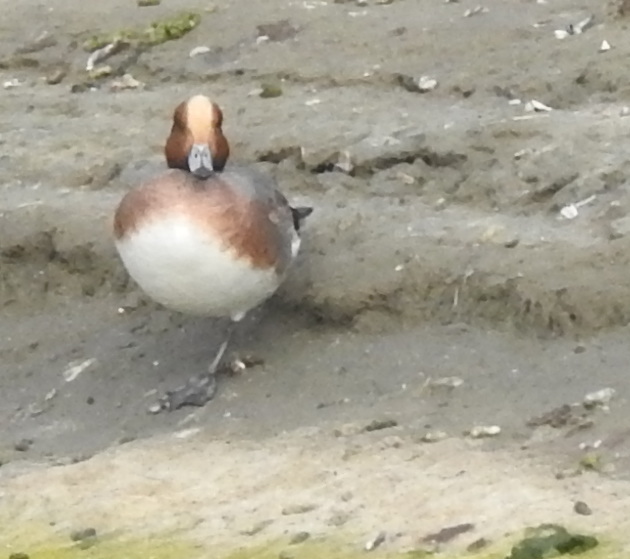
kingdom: Animalia
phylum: Chordata
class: Aves
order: Anseriformes
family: Anatidae
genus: Mareca
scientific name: Mareca penelope
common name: Eurasian wigeon
